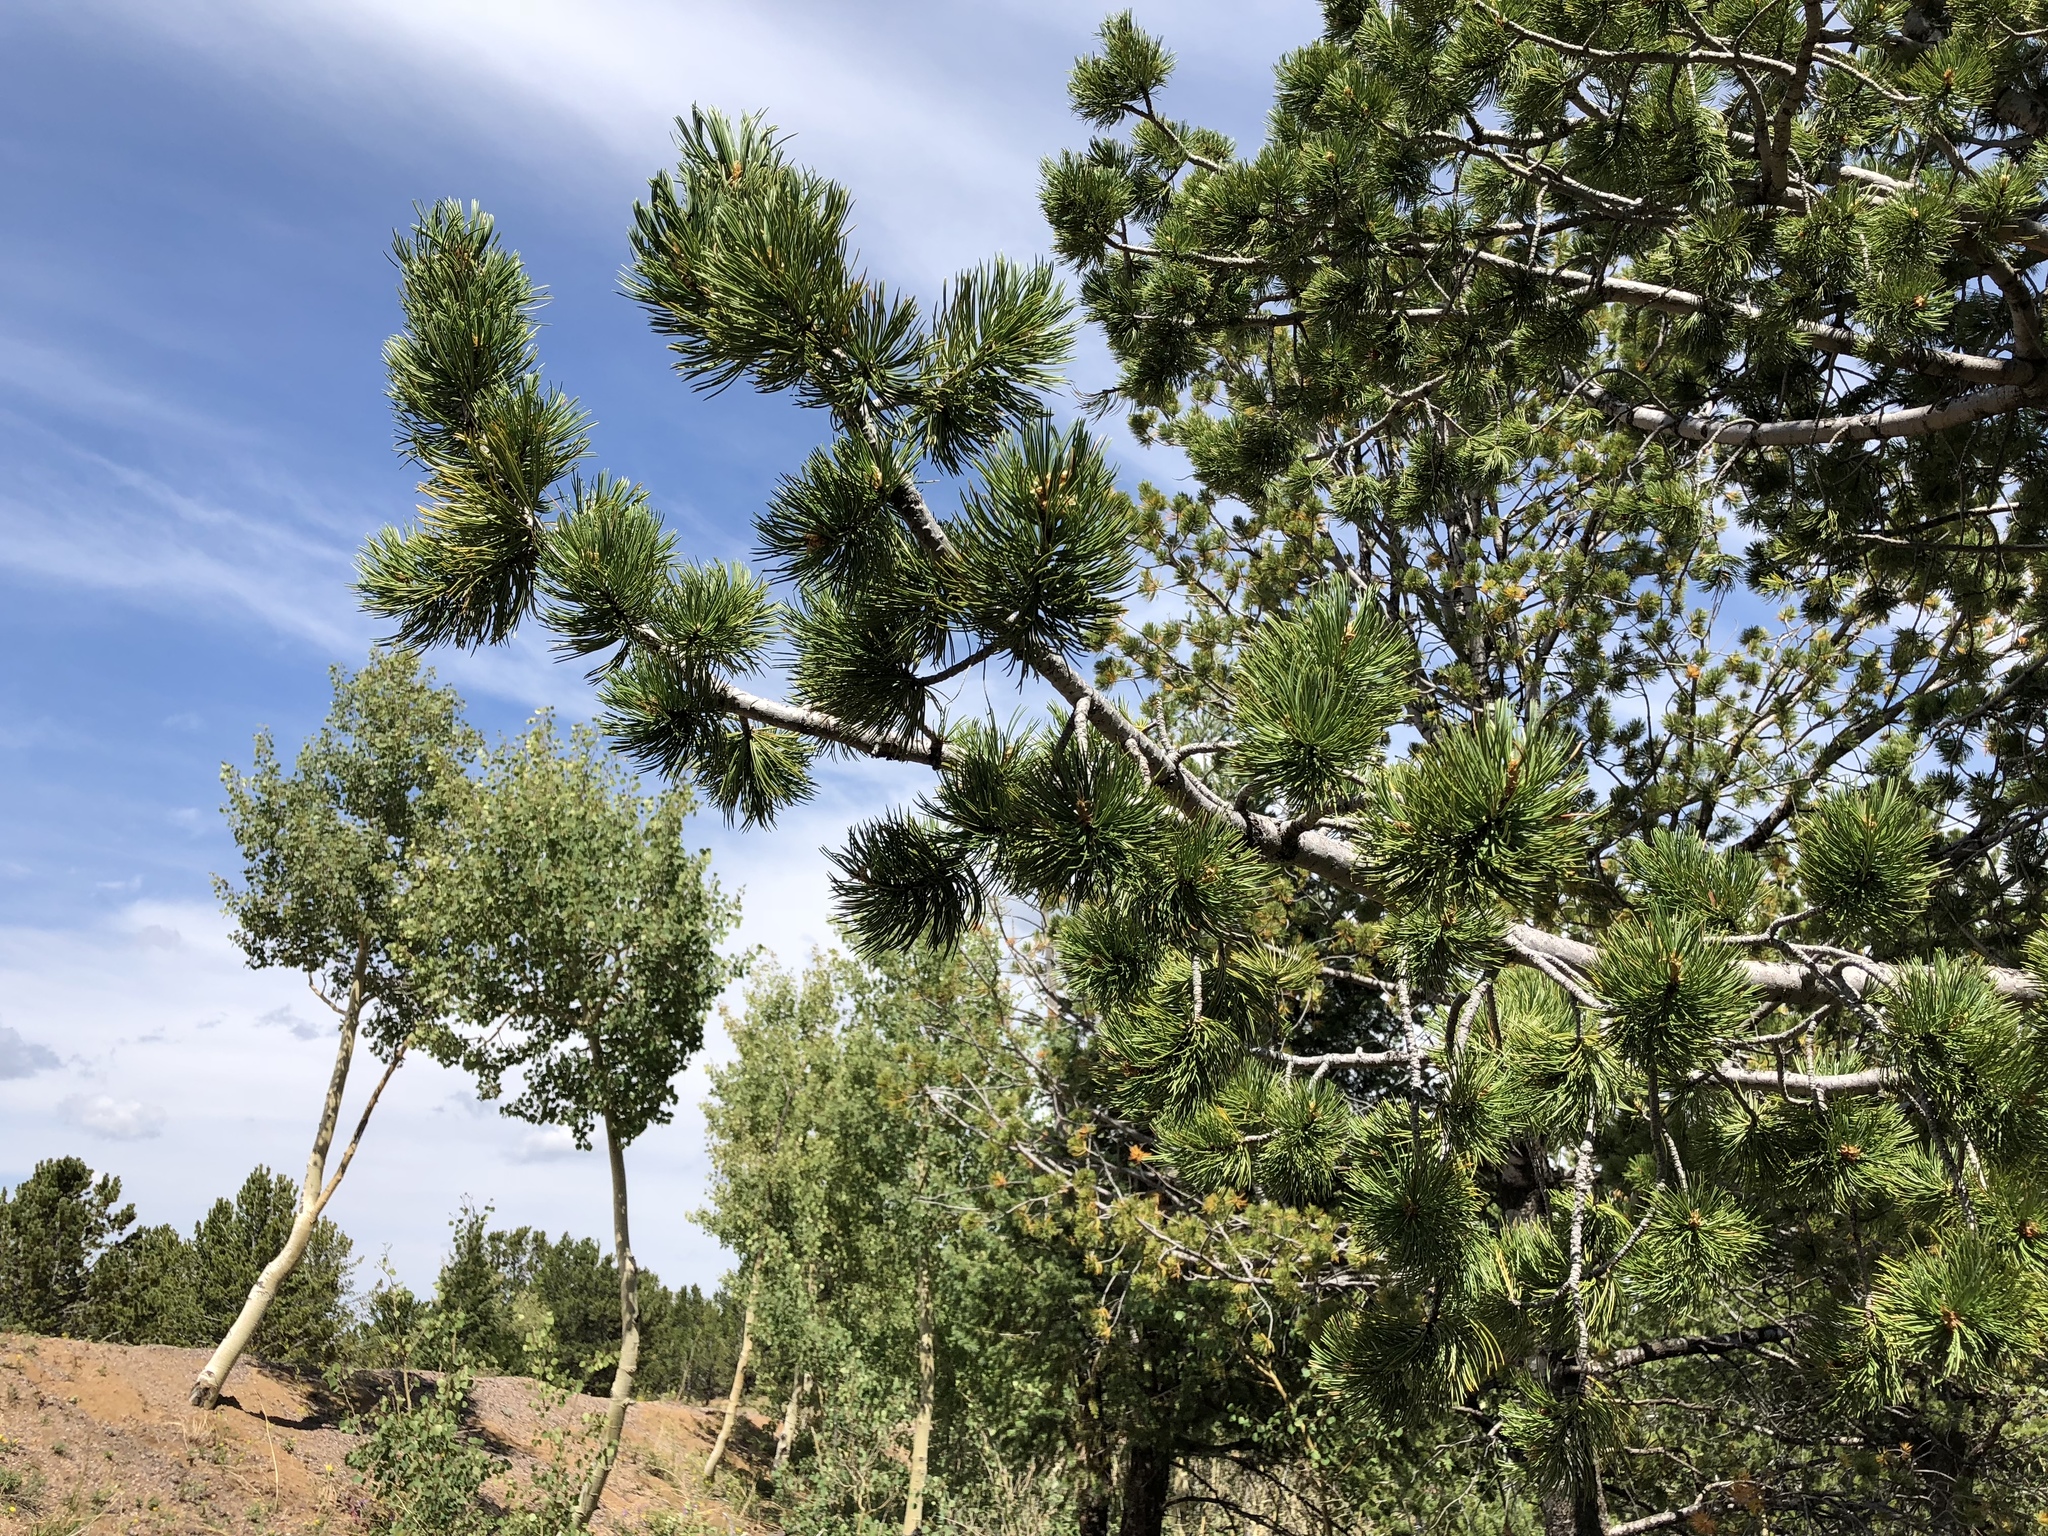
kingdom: Plantae
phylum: Tracheophyta
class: Pinopsida
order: Pinales
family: Pinaceae
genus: Pinus
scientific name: Pinus flexilis
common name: Limber pine
